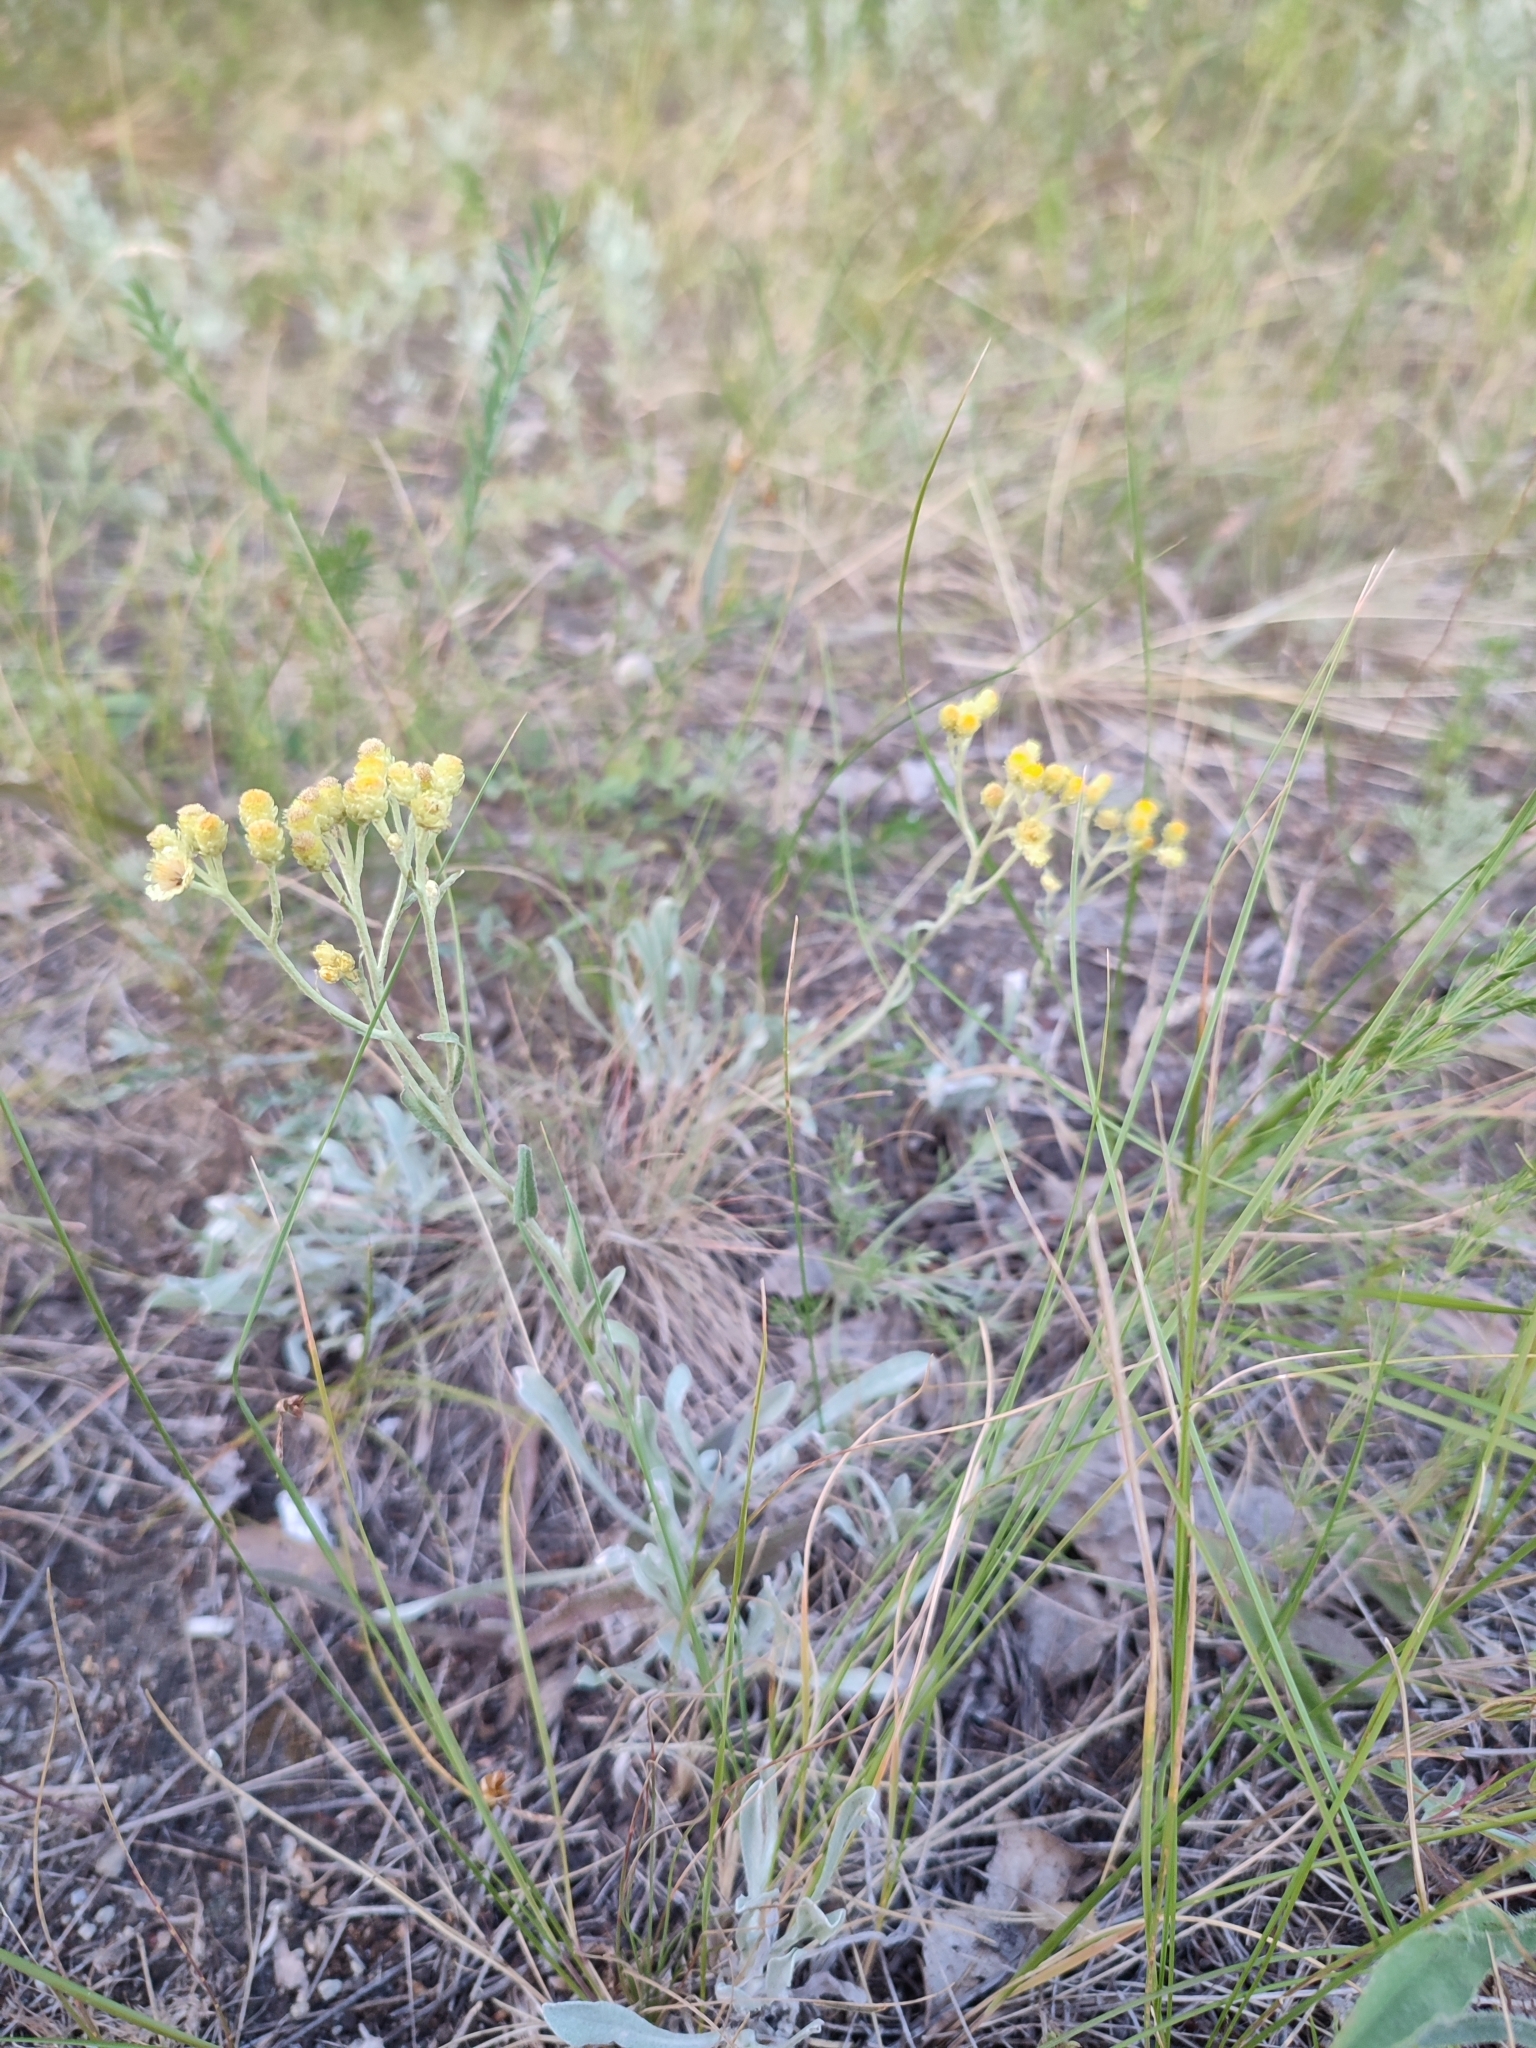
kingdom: Plantae
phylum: Tracheophyta
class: Magnoliopsida
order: Asterales
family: Asteraceae
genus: Helichrysum
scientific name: Helichrysum arenarium
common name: Strawflower
